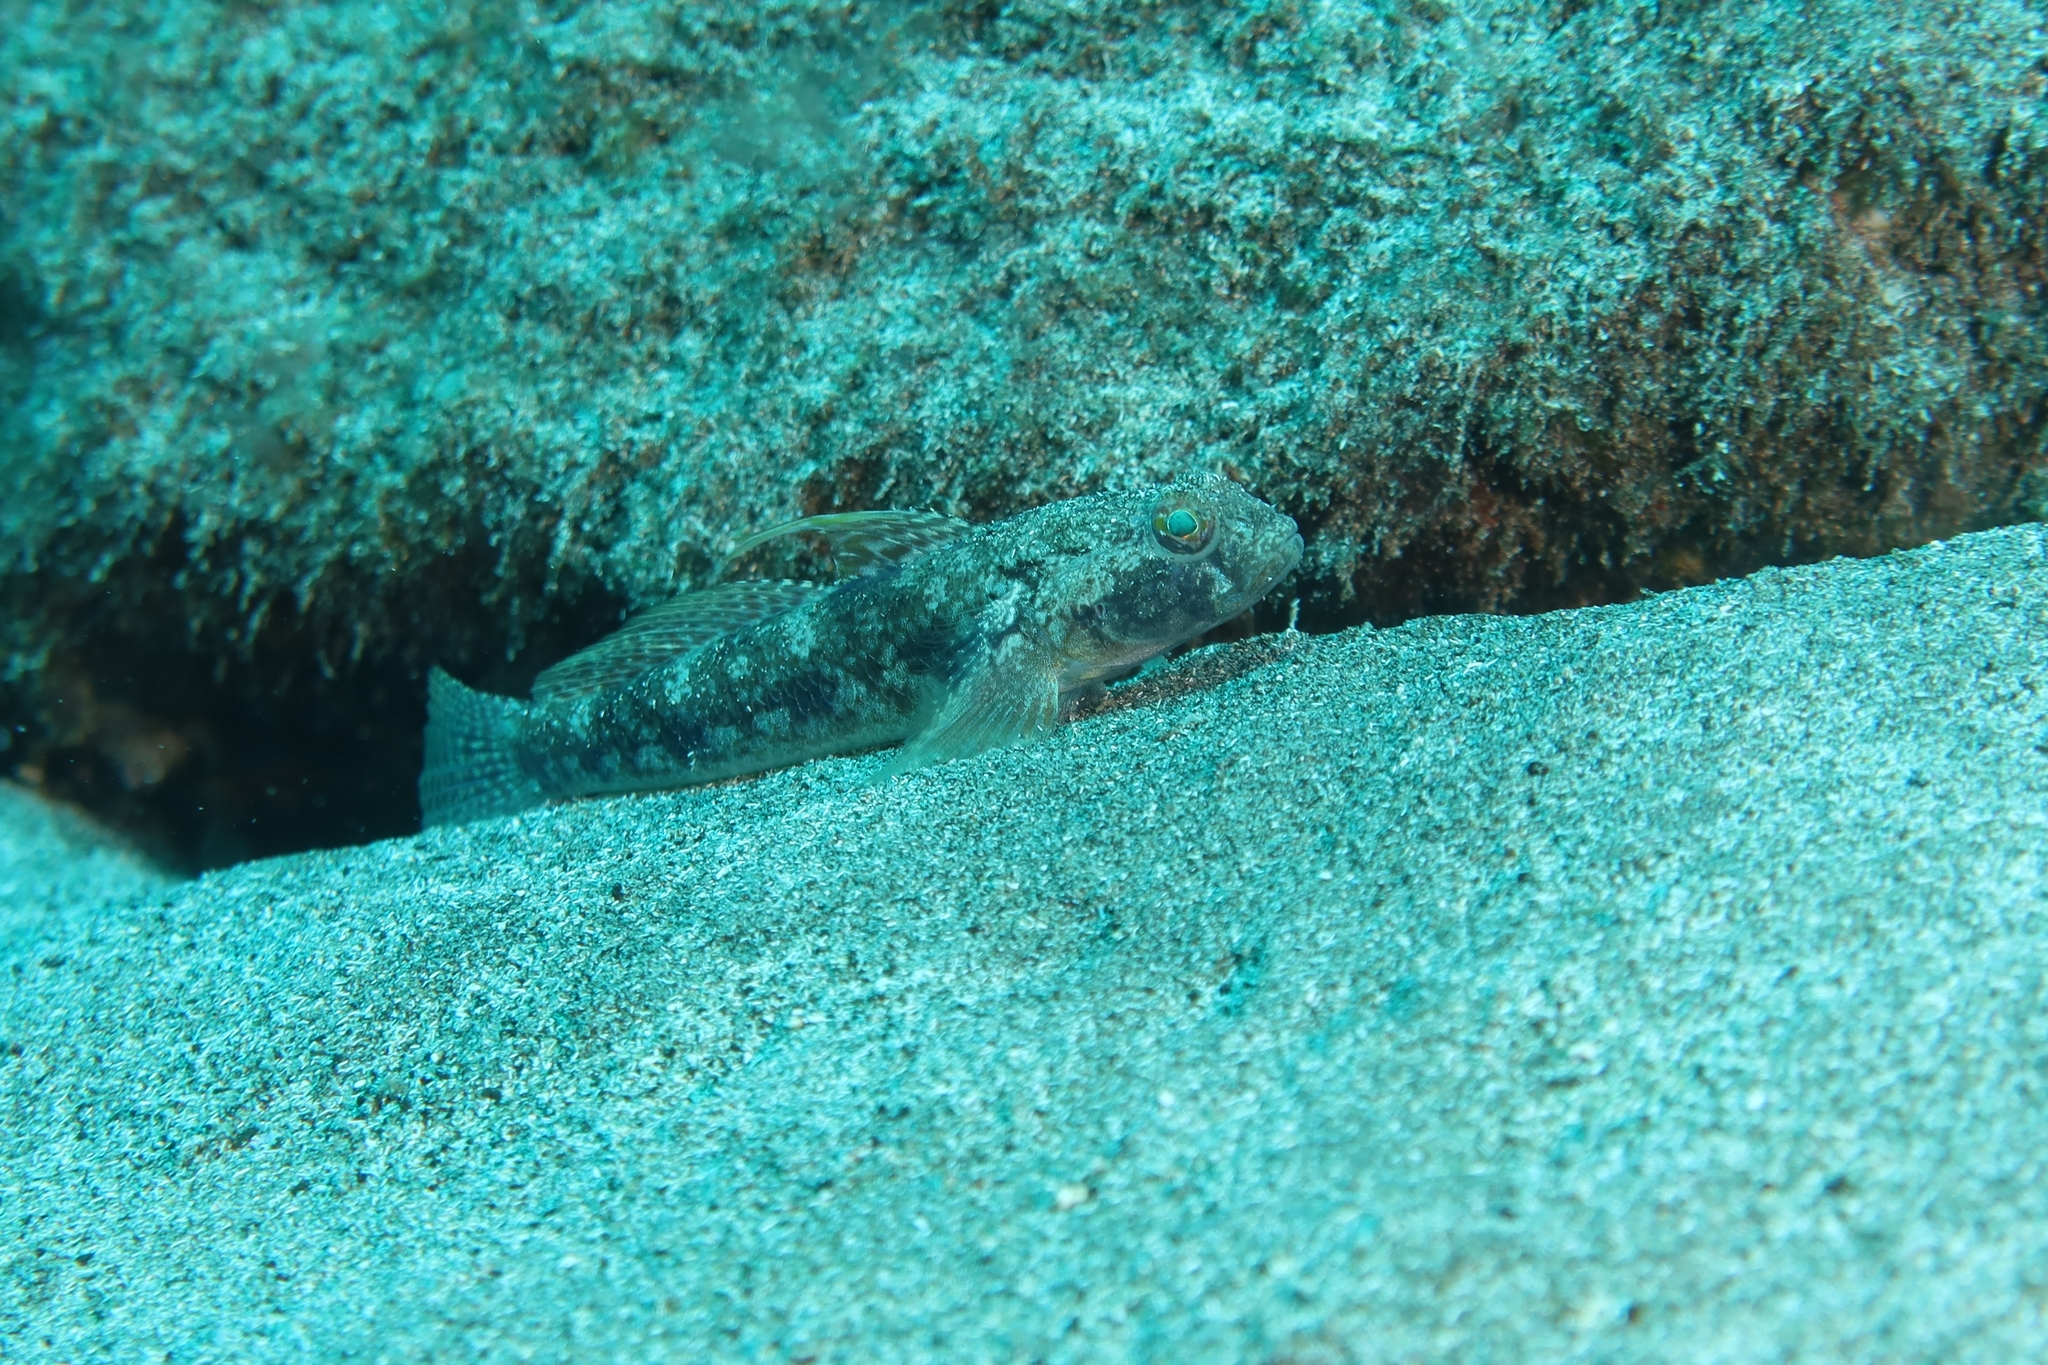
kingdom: Animalia
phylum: Chordata
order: Perciformes
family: Gobiidae
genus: Gobius
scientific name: Gobius niger
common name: Black goby
